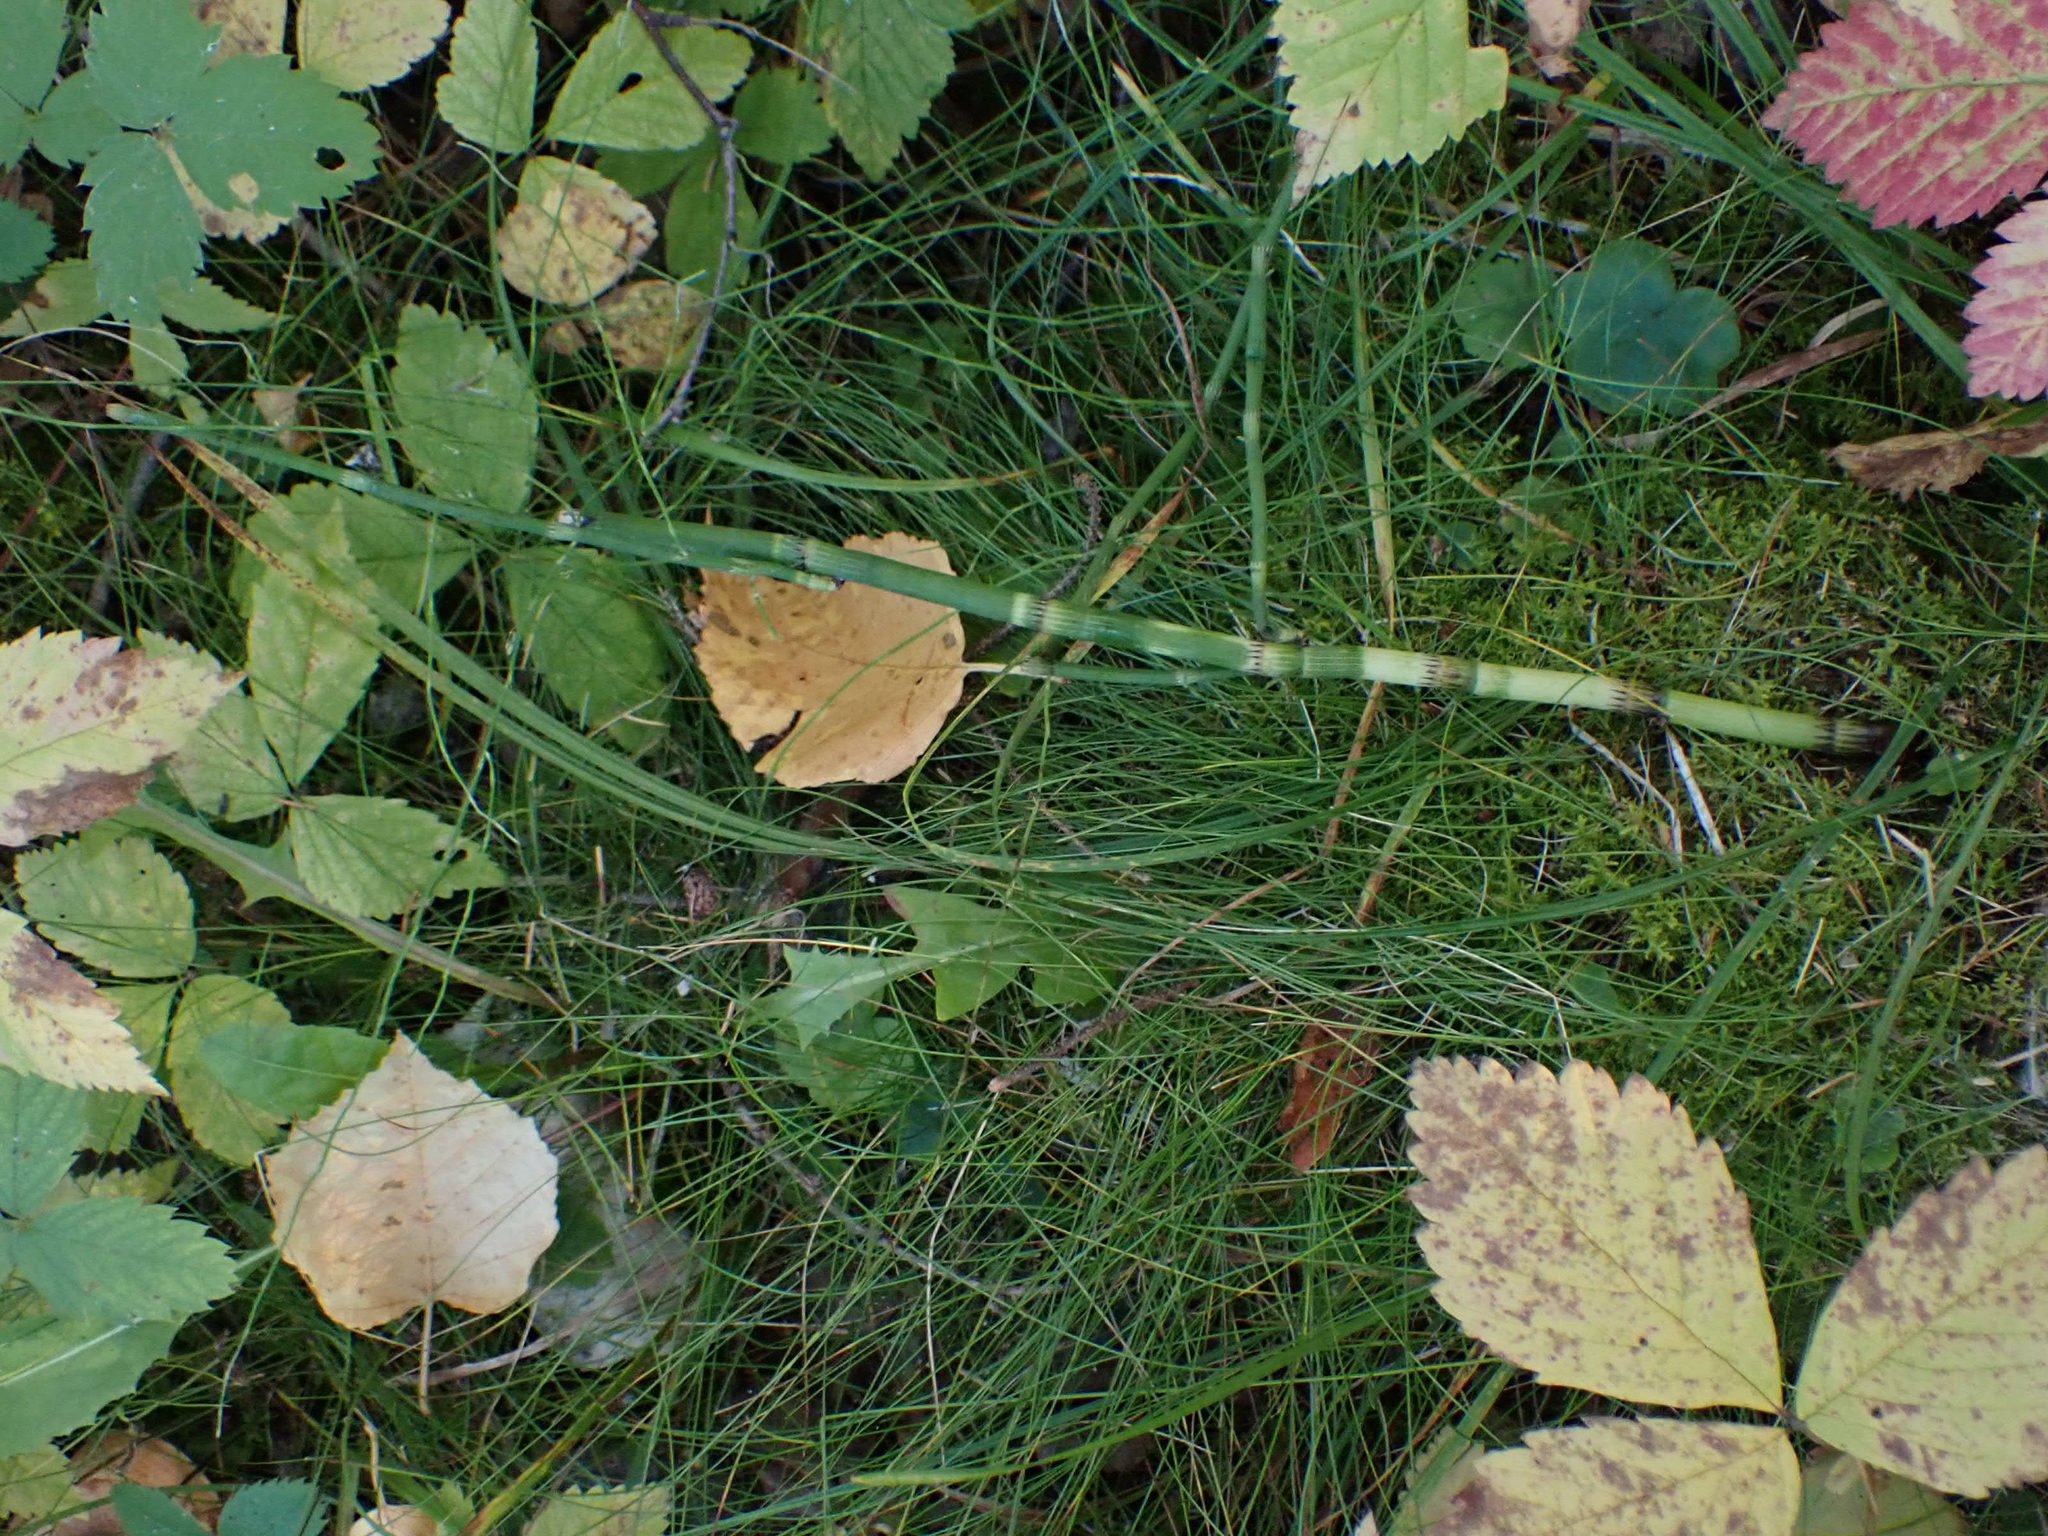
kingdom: Plantae
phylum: Tracheophyta
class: Polypodiopsida
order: Equisetales
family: Equisetaceae
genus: Equisetum
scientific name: Equisetum fluviatile
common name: Water horsetail
